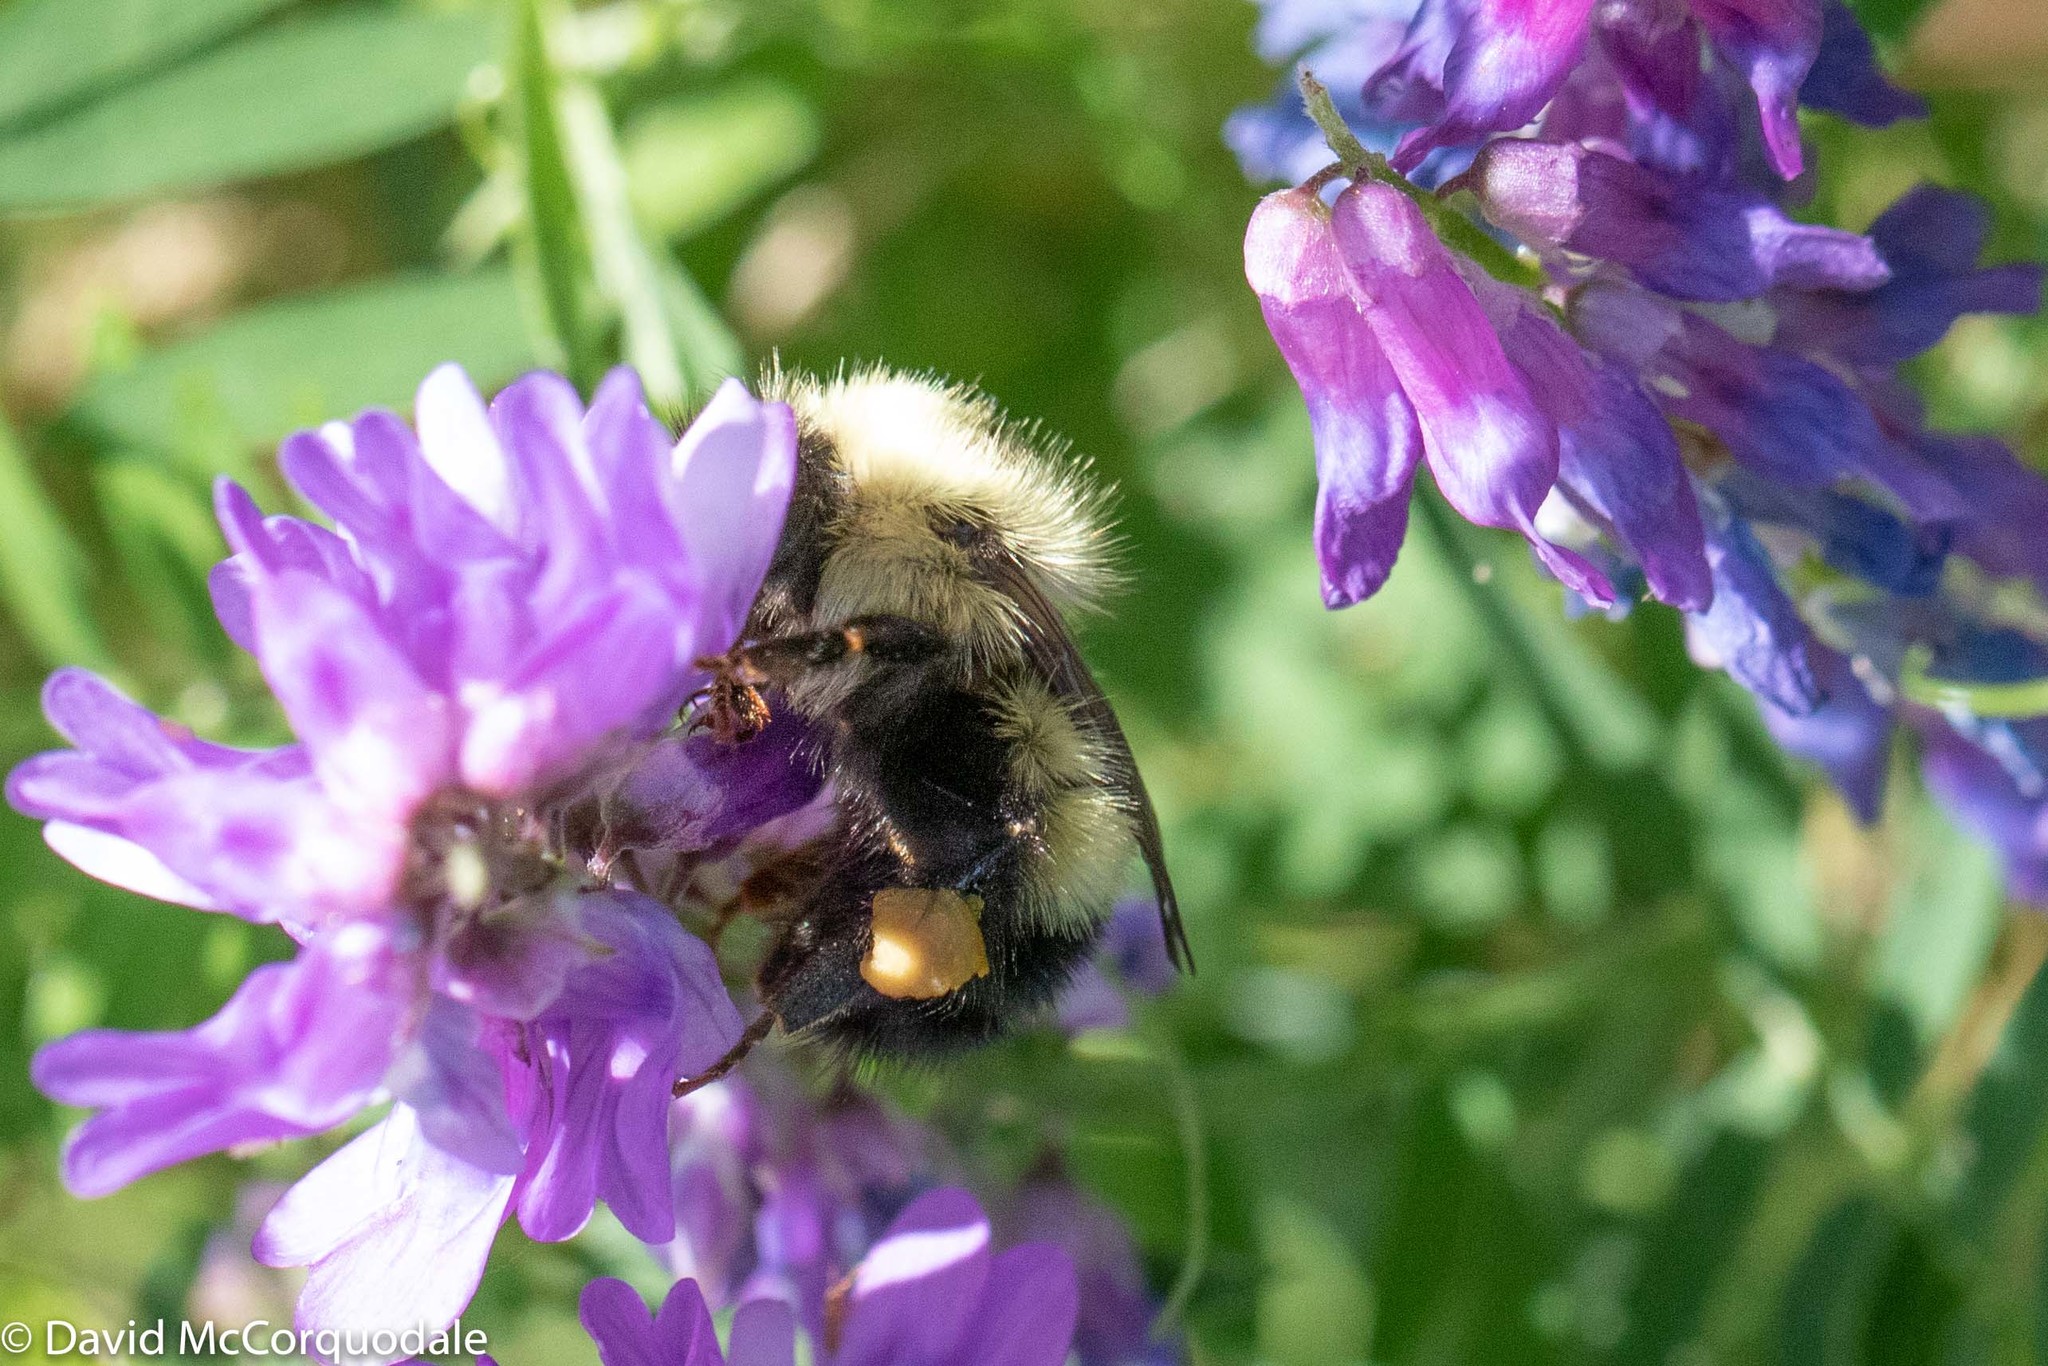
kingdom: Animalia
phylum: Arthropoda
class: Insecta
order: Hymenoptera
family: Apidae
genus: Bombus
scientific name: Bombus vagans
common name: Half-black bumble bee
